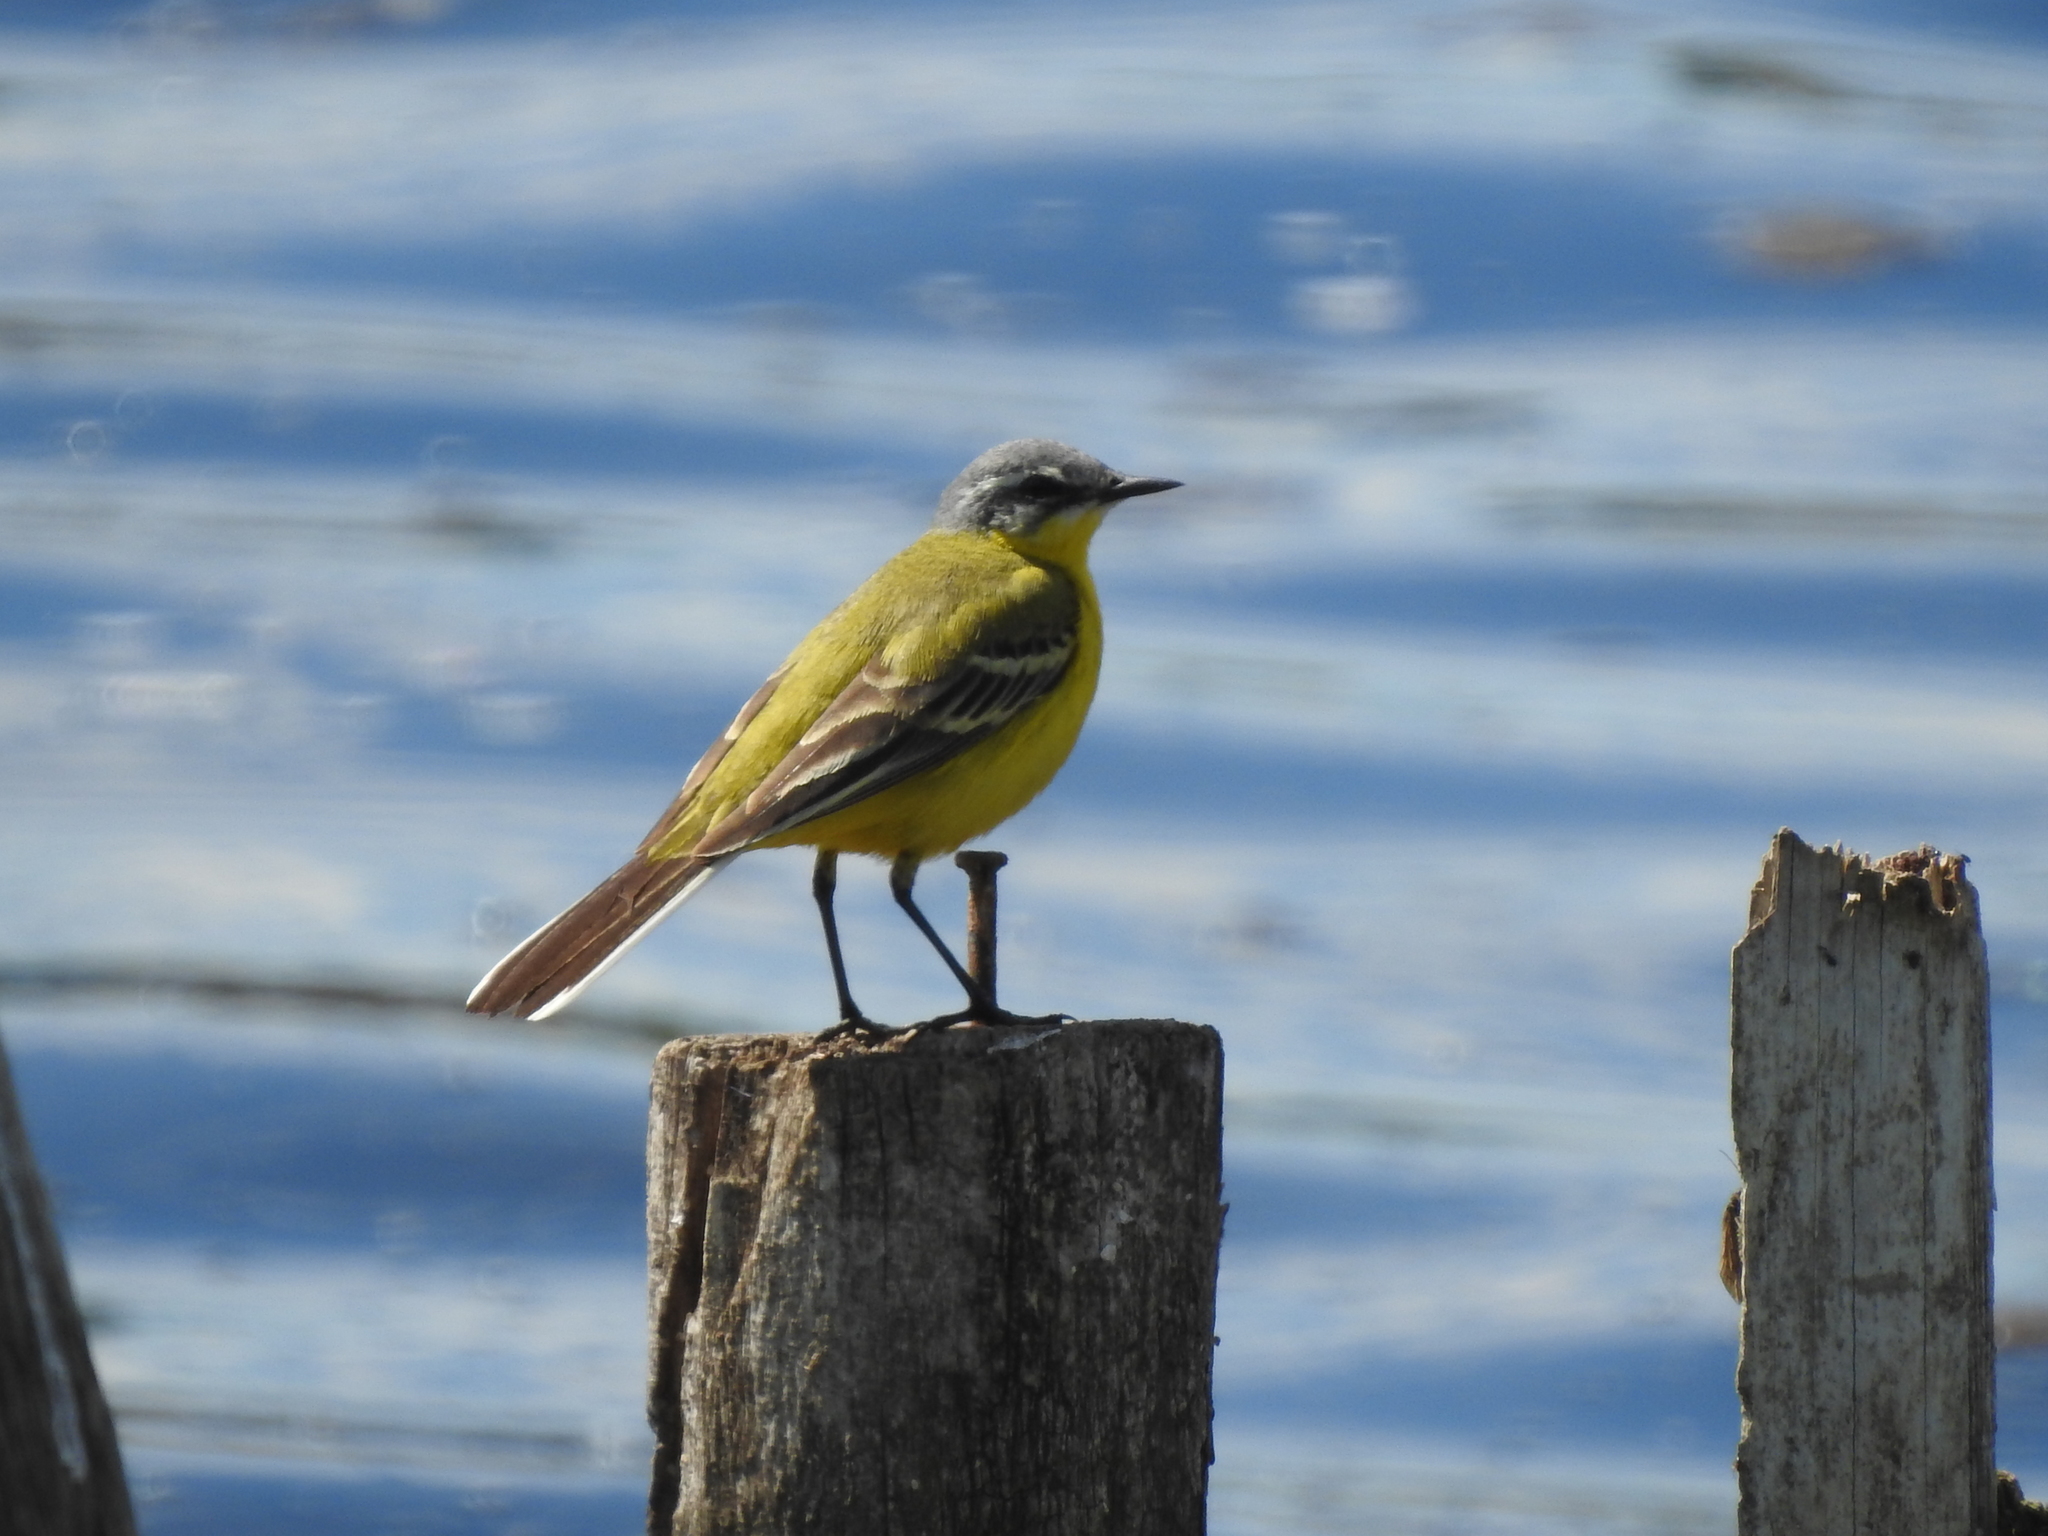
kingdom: Animalia
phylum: Chordata
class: Aves
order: Passeriformes
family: Motacillidae
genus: Motacilla
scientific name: Motacilla flava
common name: Western yellow wagtail
